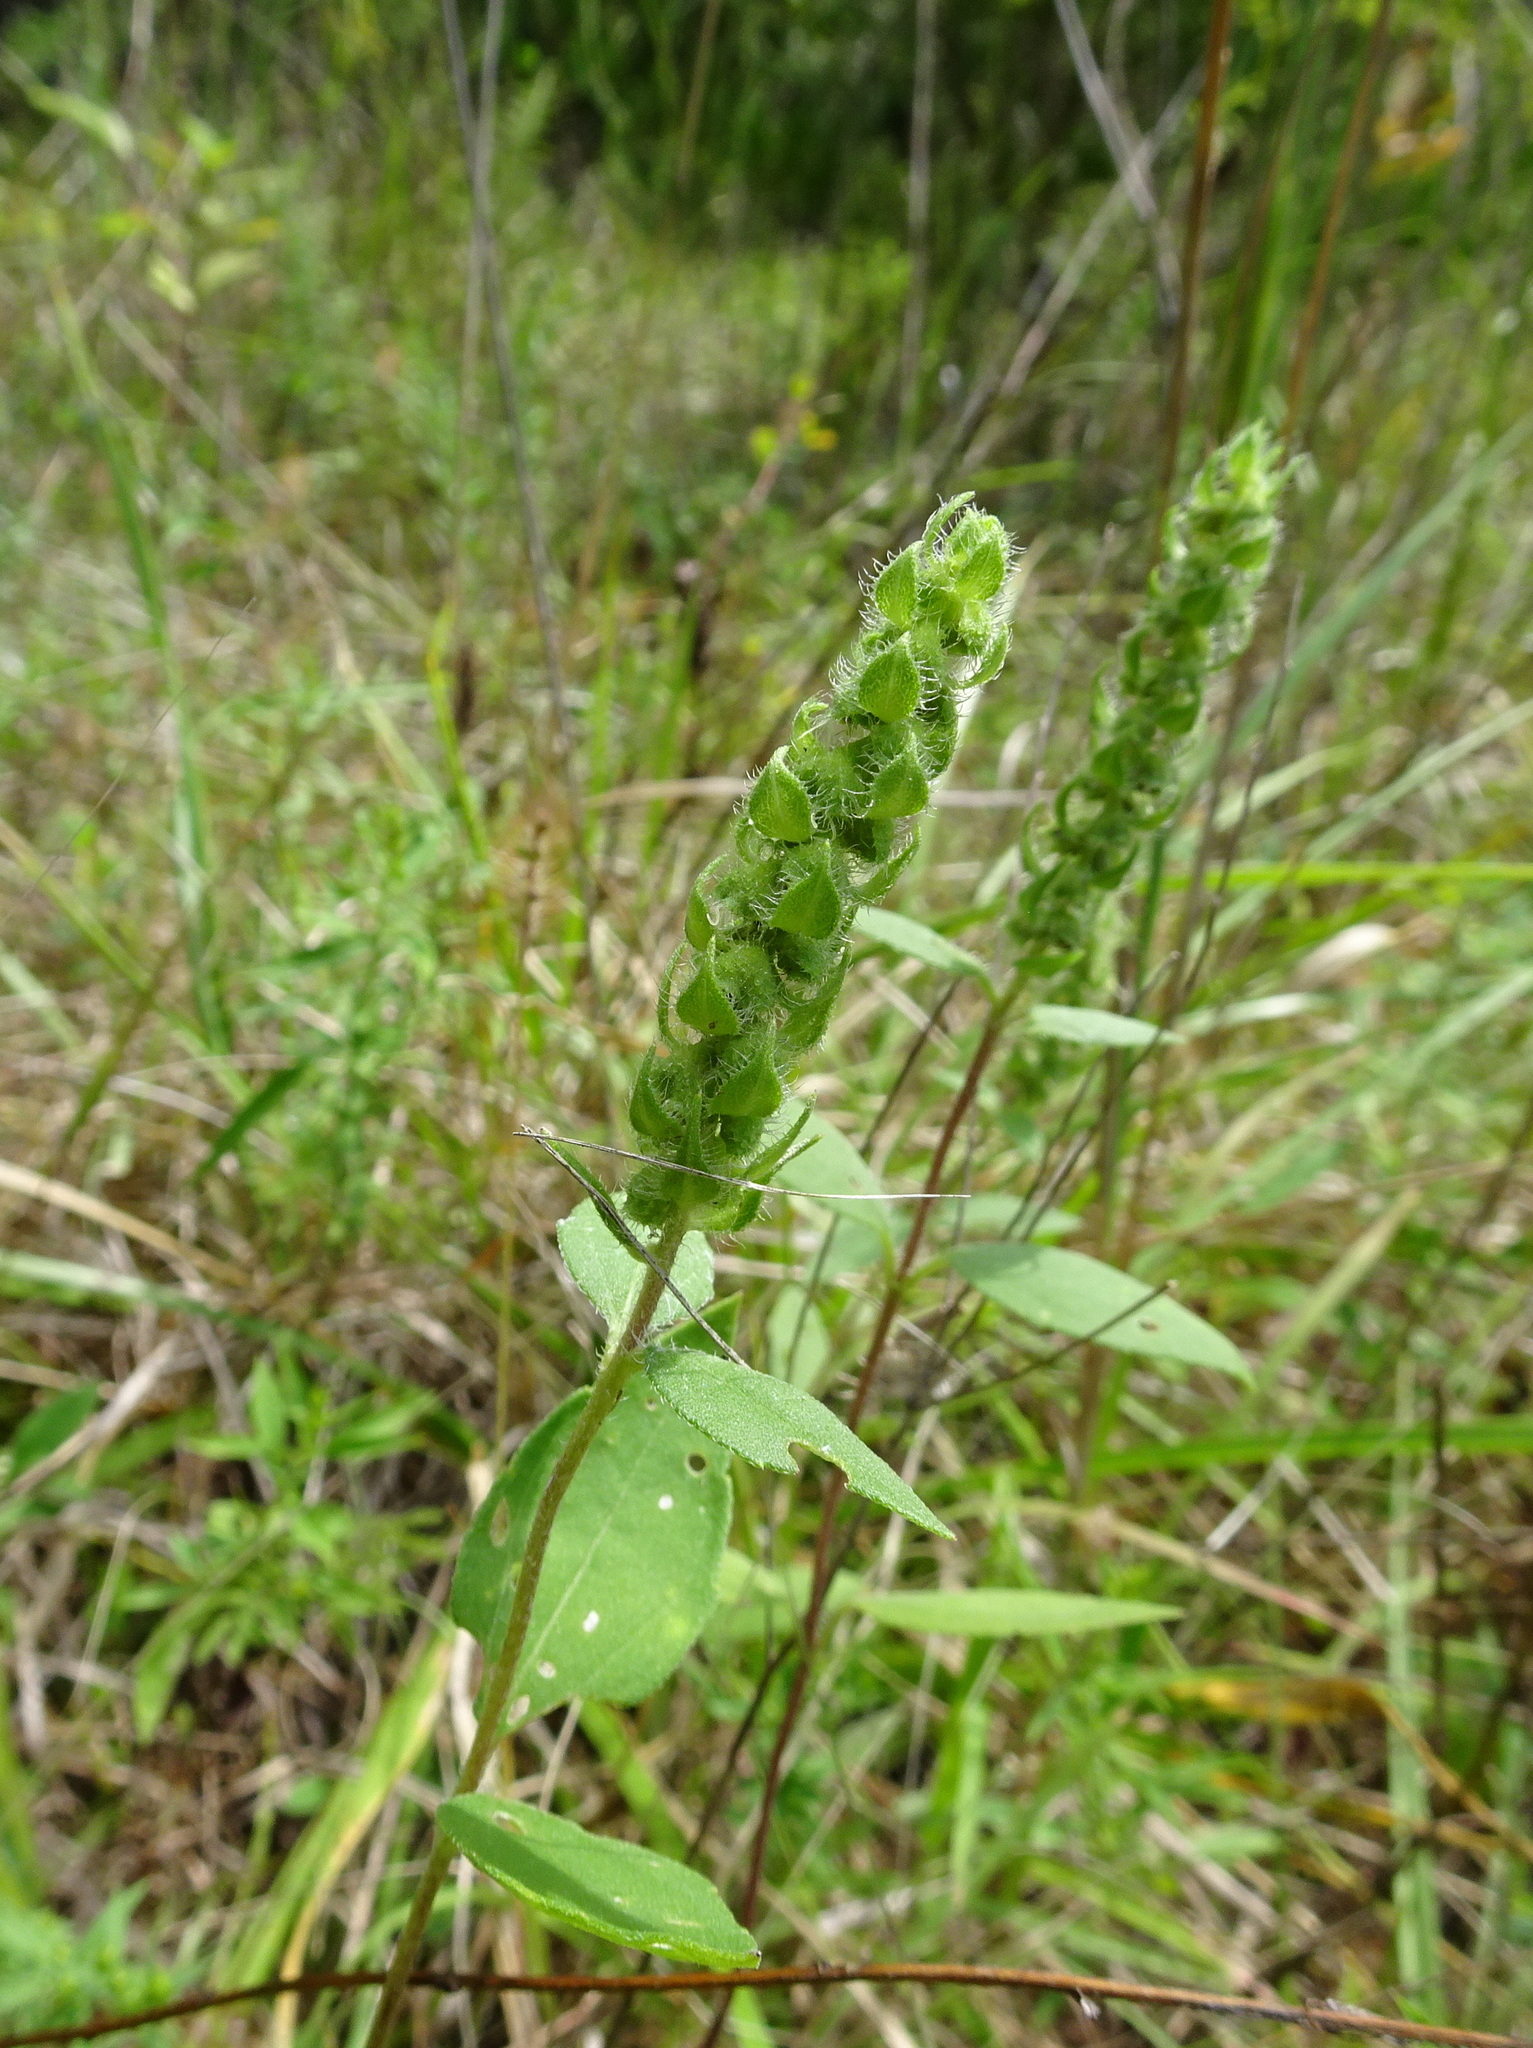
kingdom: Plantae
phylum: Tracheophyta
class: Magnoliopsida
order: Asterales
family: Asteraceae
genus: Iva
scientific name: Iva annua
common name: Marsh-elder
